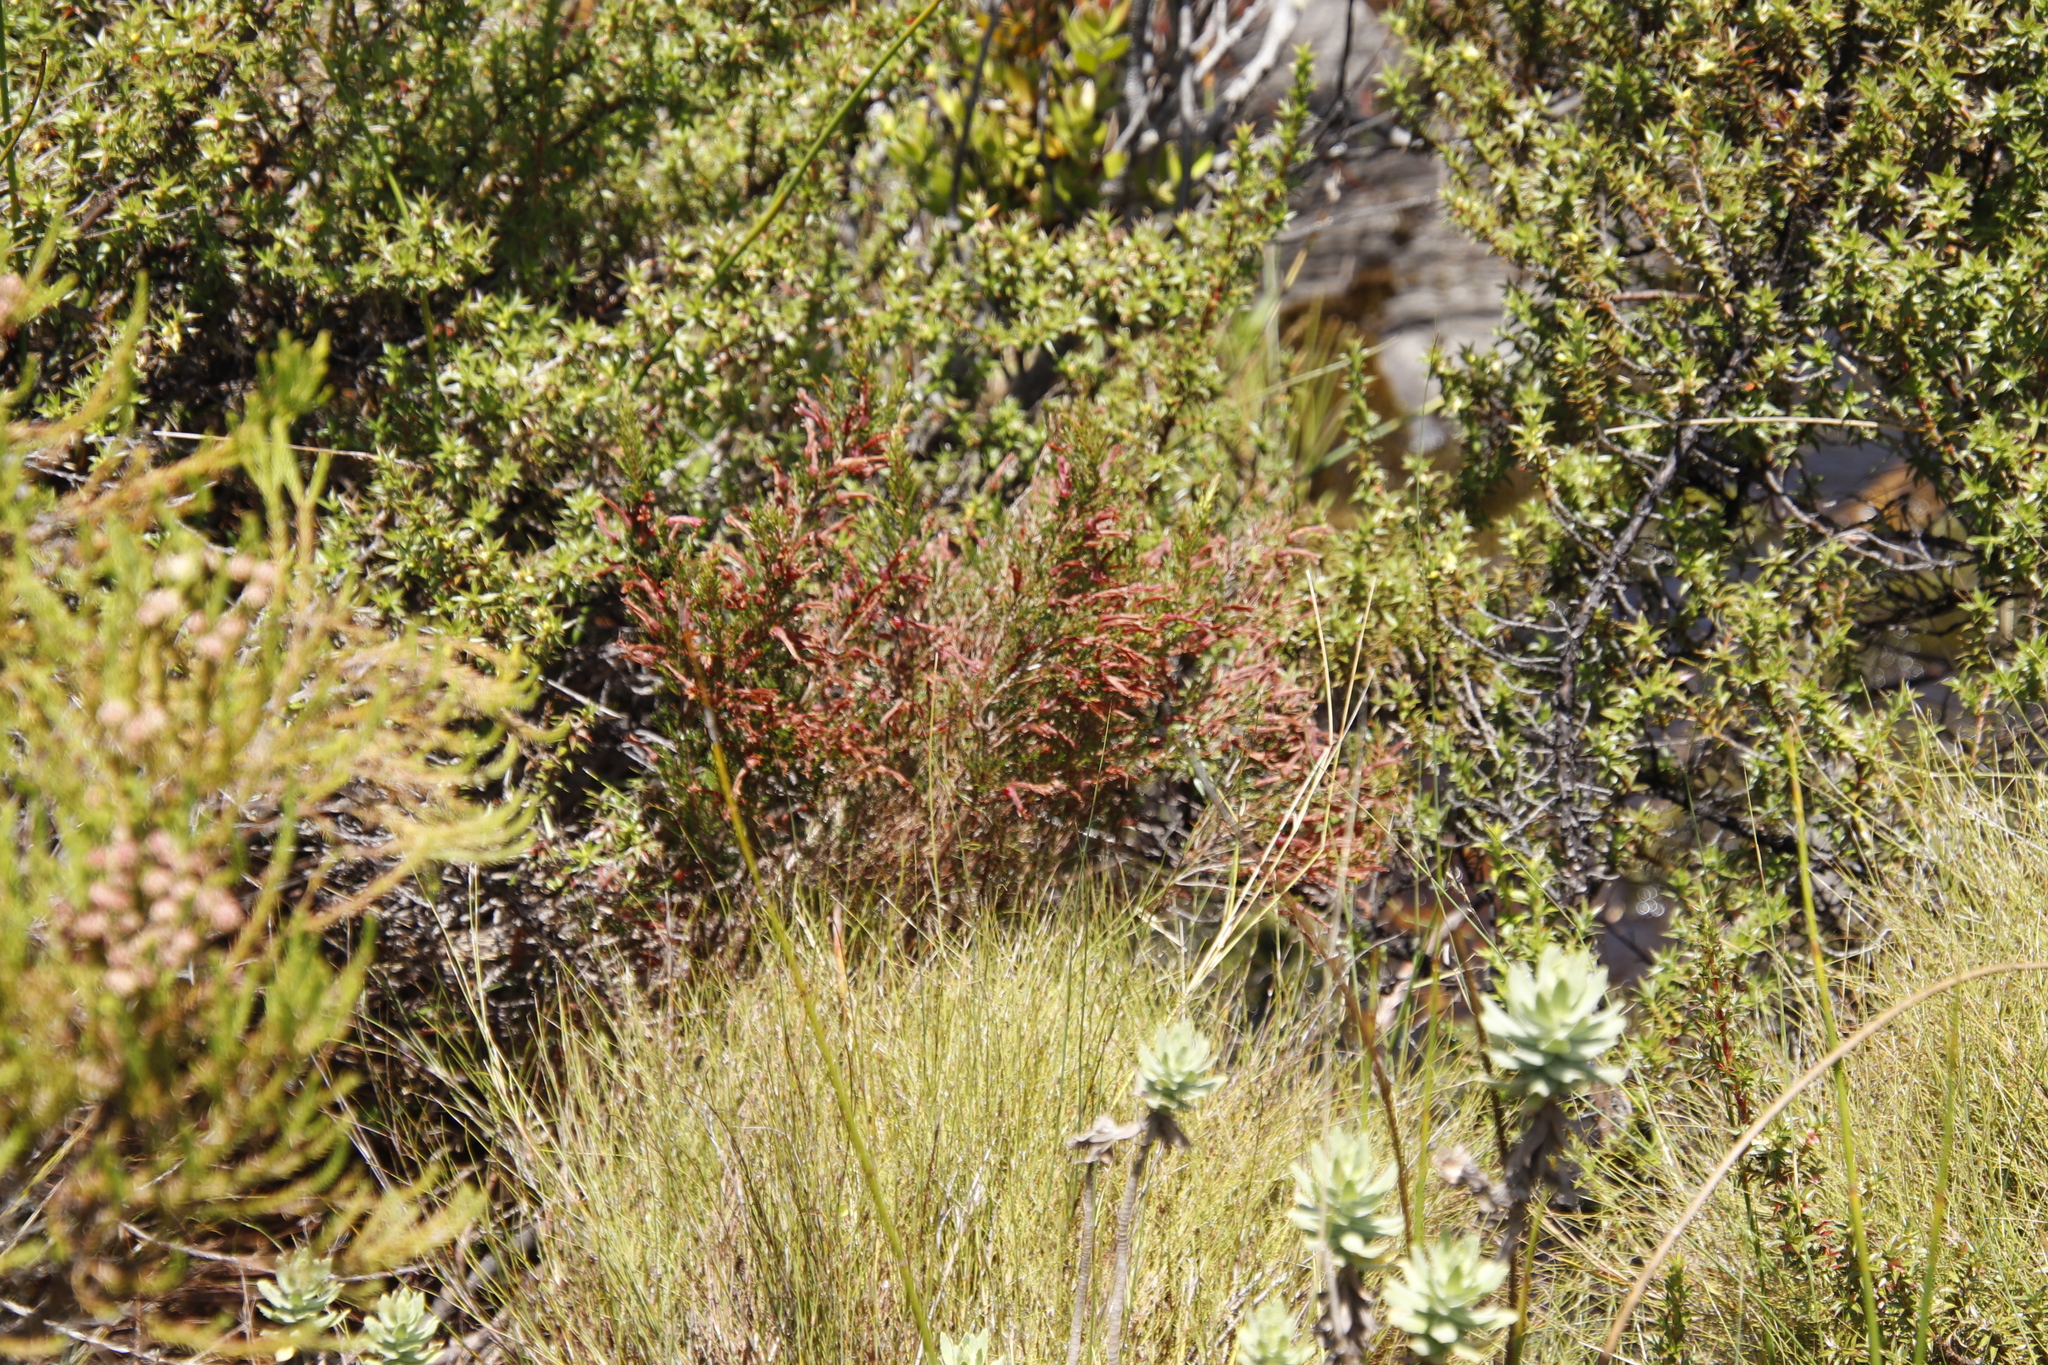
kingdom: Plantae
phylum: Tracheophyta
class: Magnoliopsida
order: Ericales
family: Ericaceae
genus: Erica
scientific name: Erica curviflora
